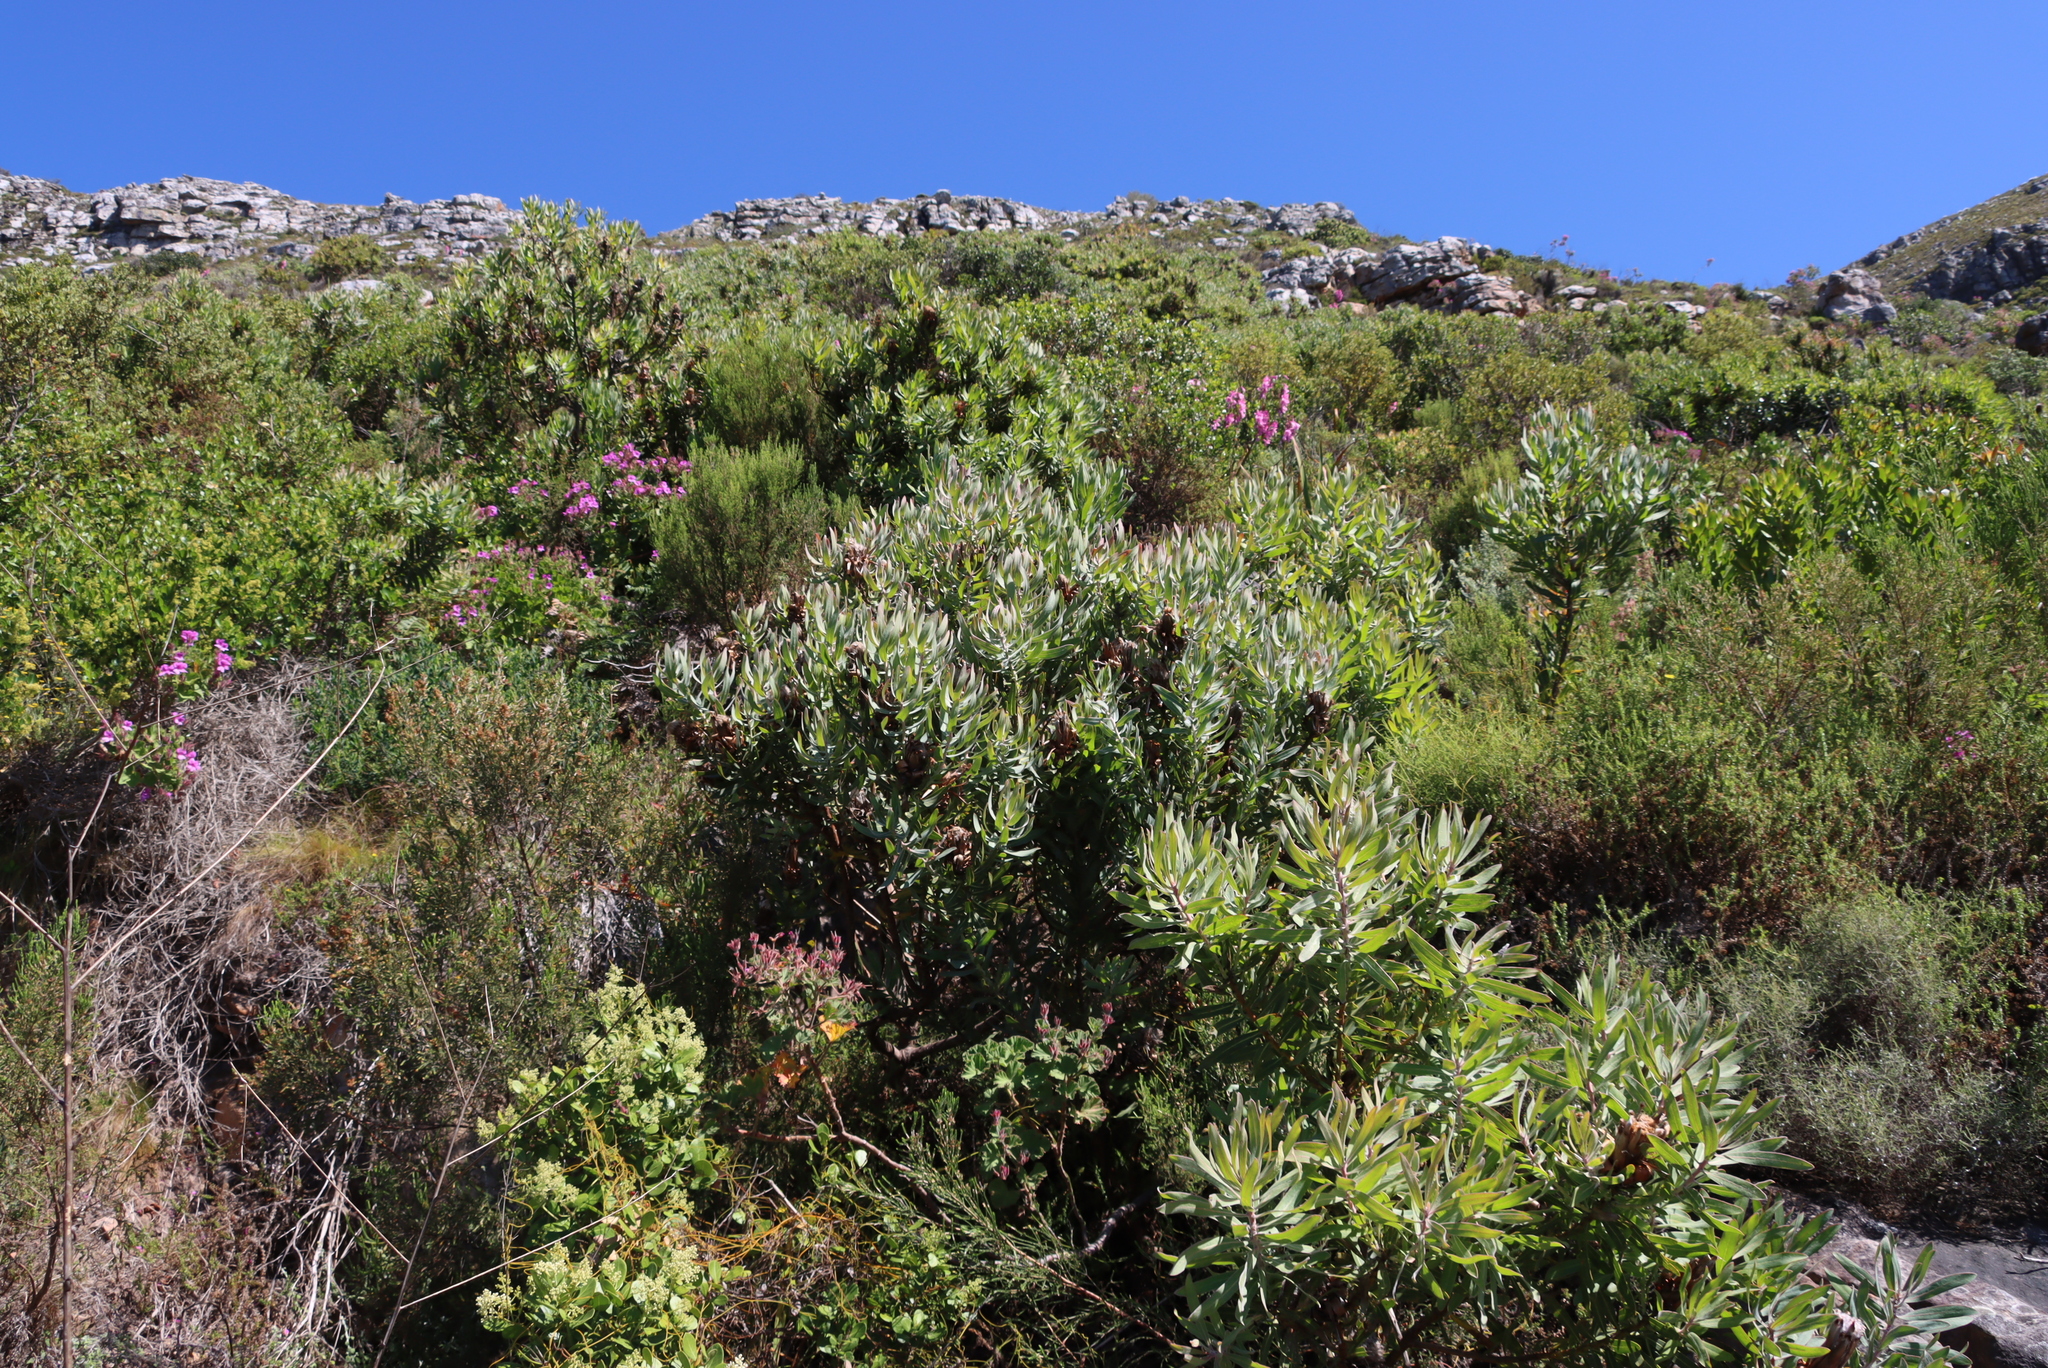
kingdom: Plantae
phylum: Tracheophyta
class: Magnoliopsida
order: Proteales
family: Proteaceae
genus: Protea
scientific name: Protea
